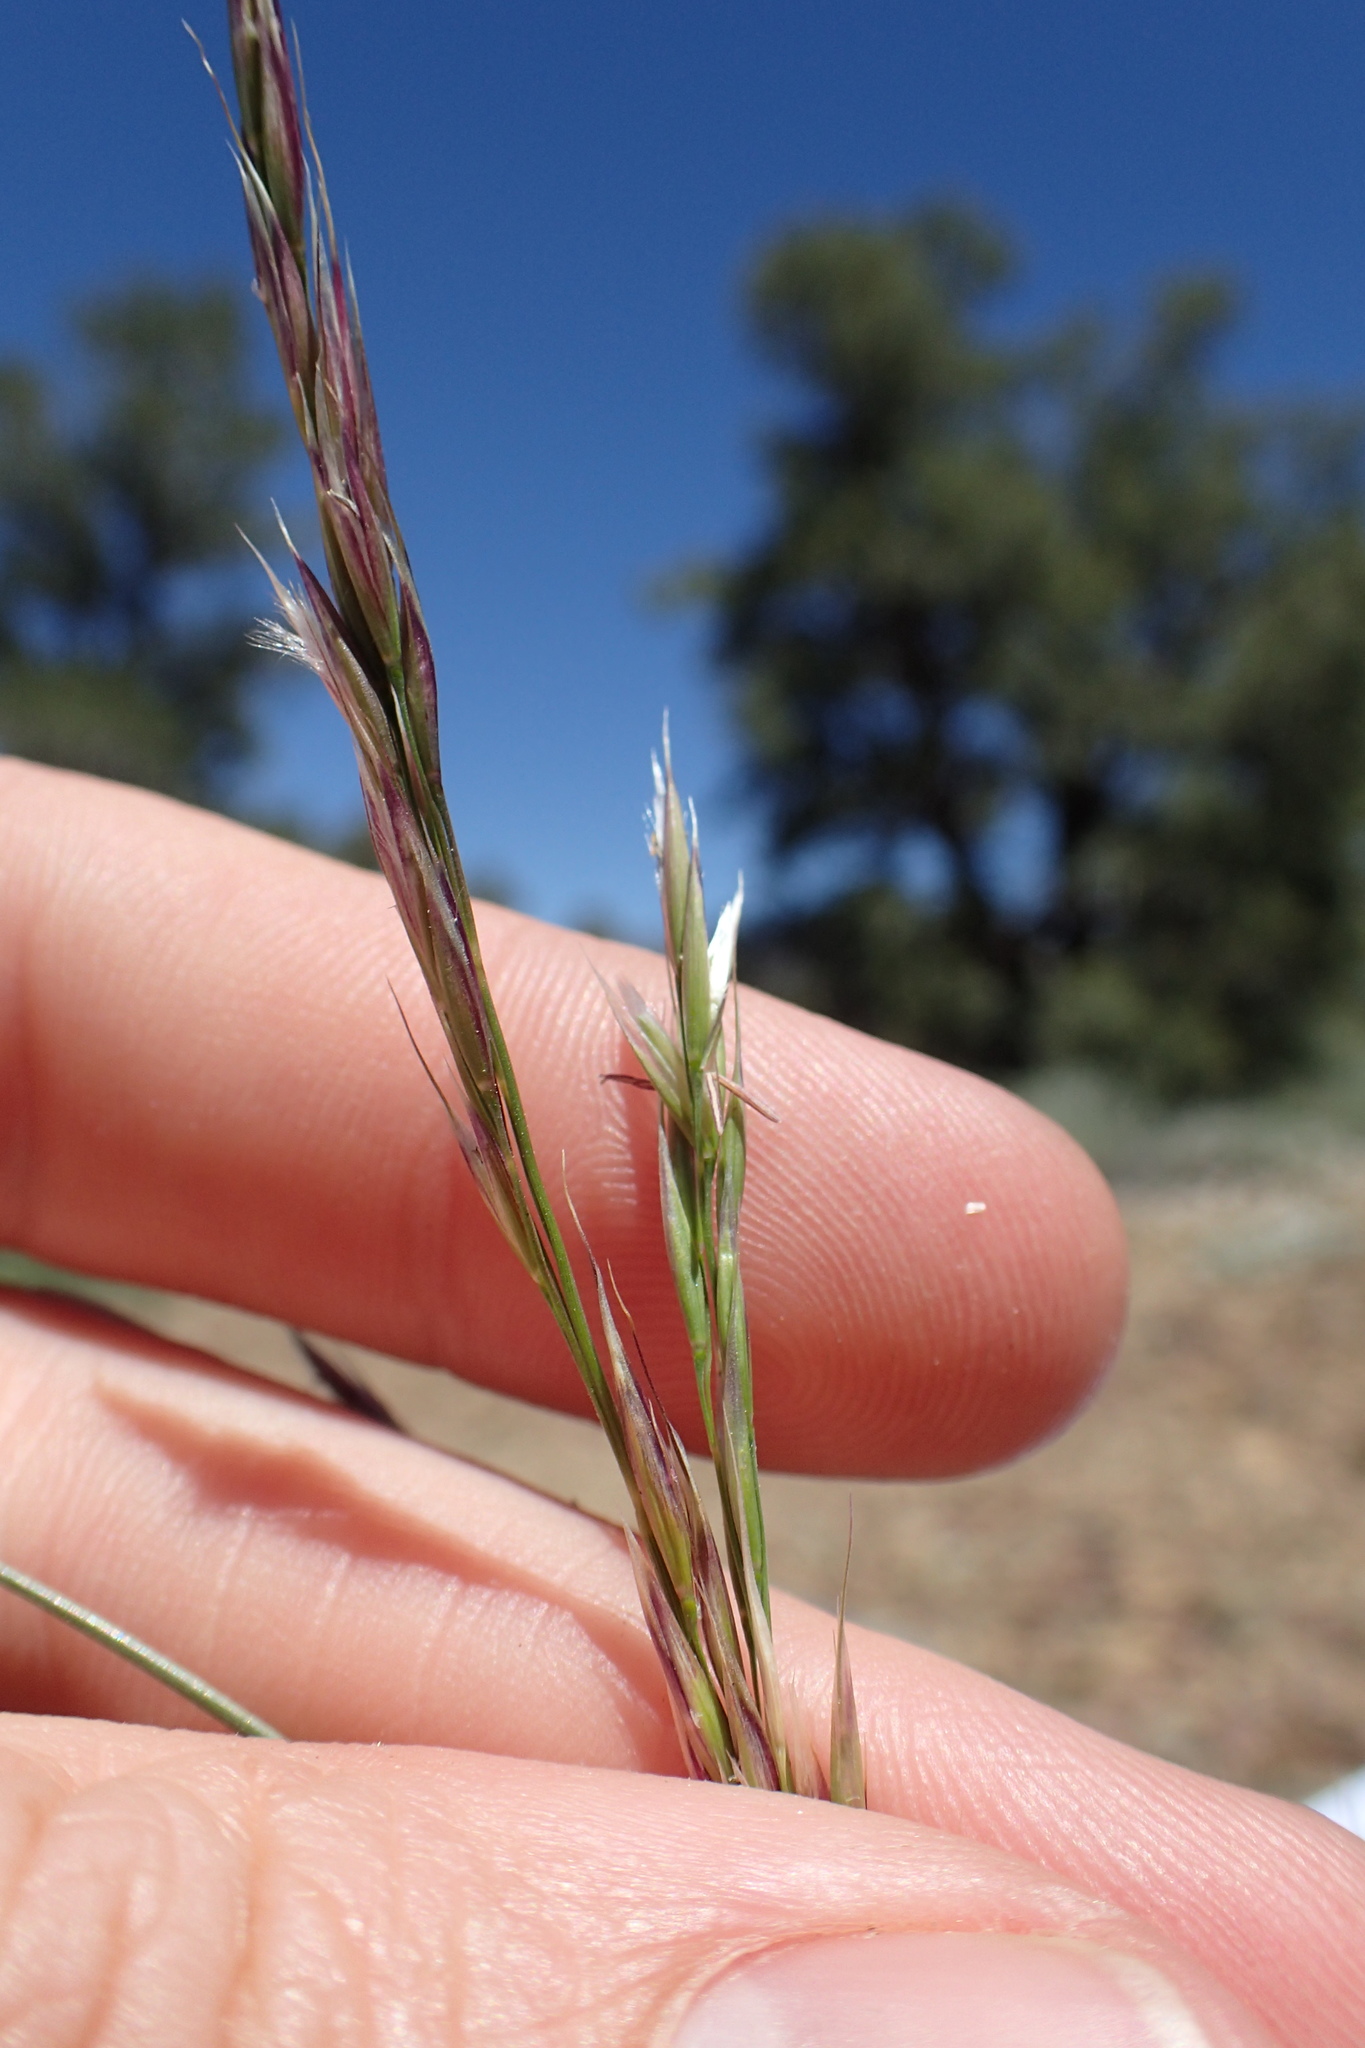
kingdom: Plantae
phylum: Tracheophyta
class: Liliopsida
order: Poales
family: Poaceae
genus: Eriocoma
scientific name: Eriocoma webberi
